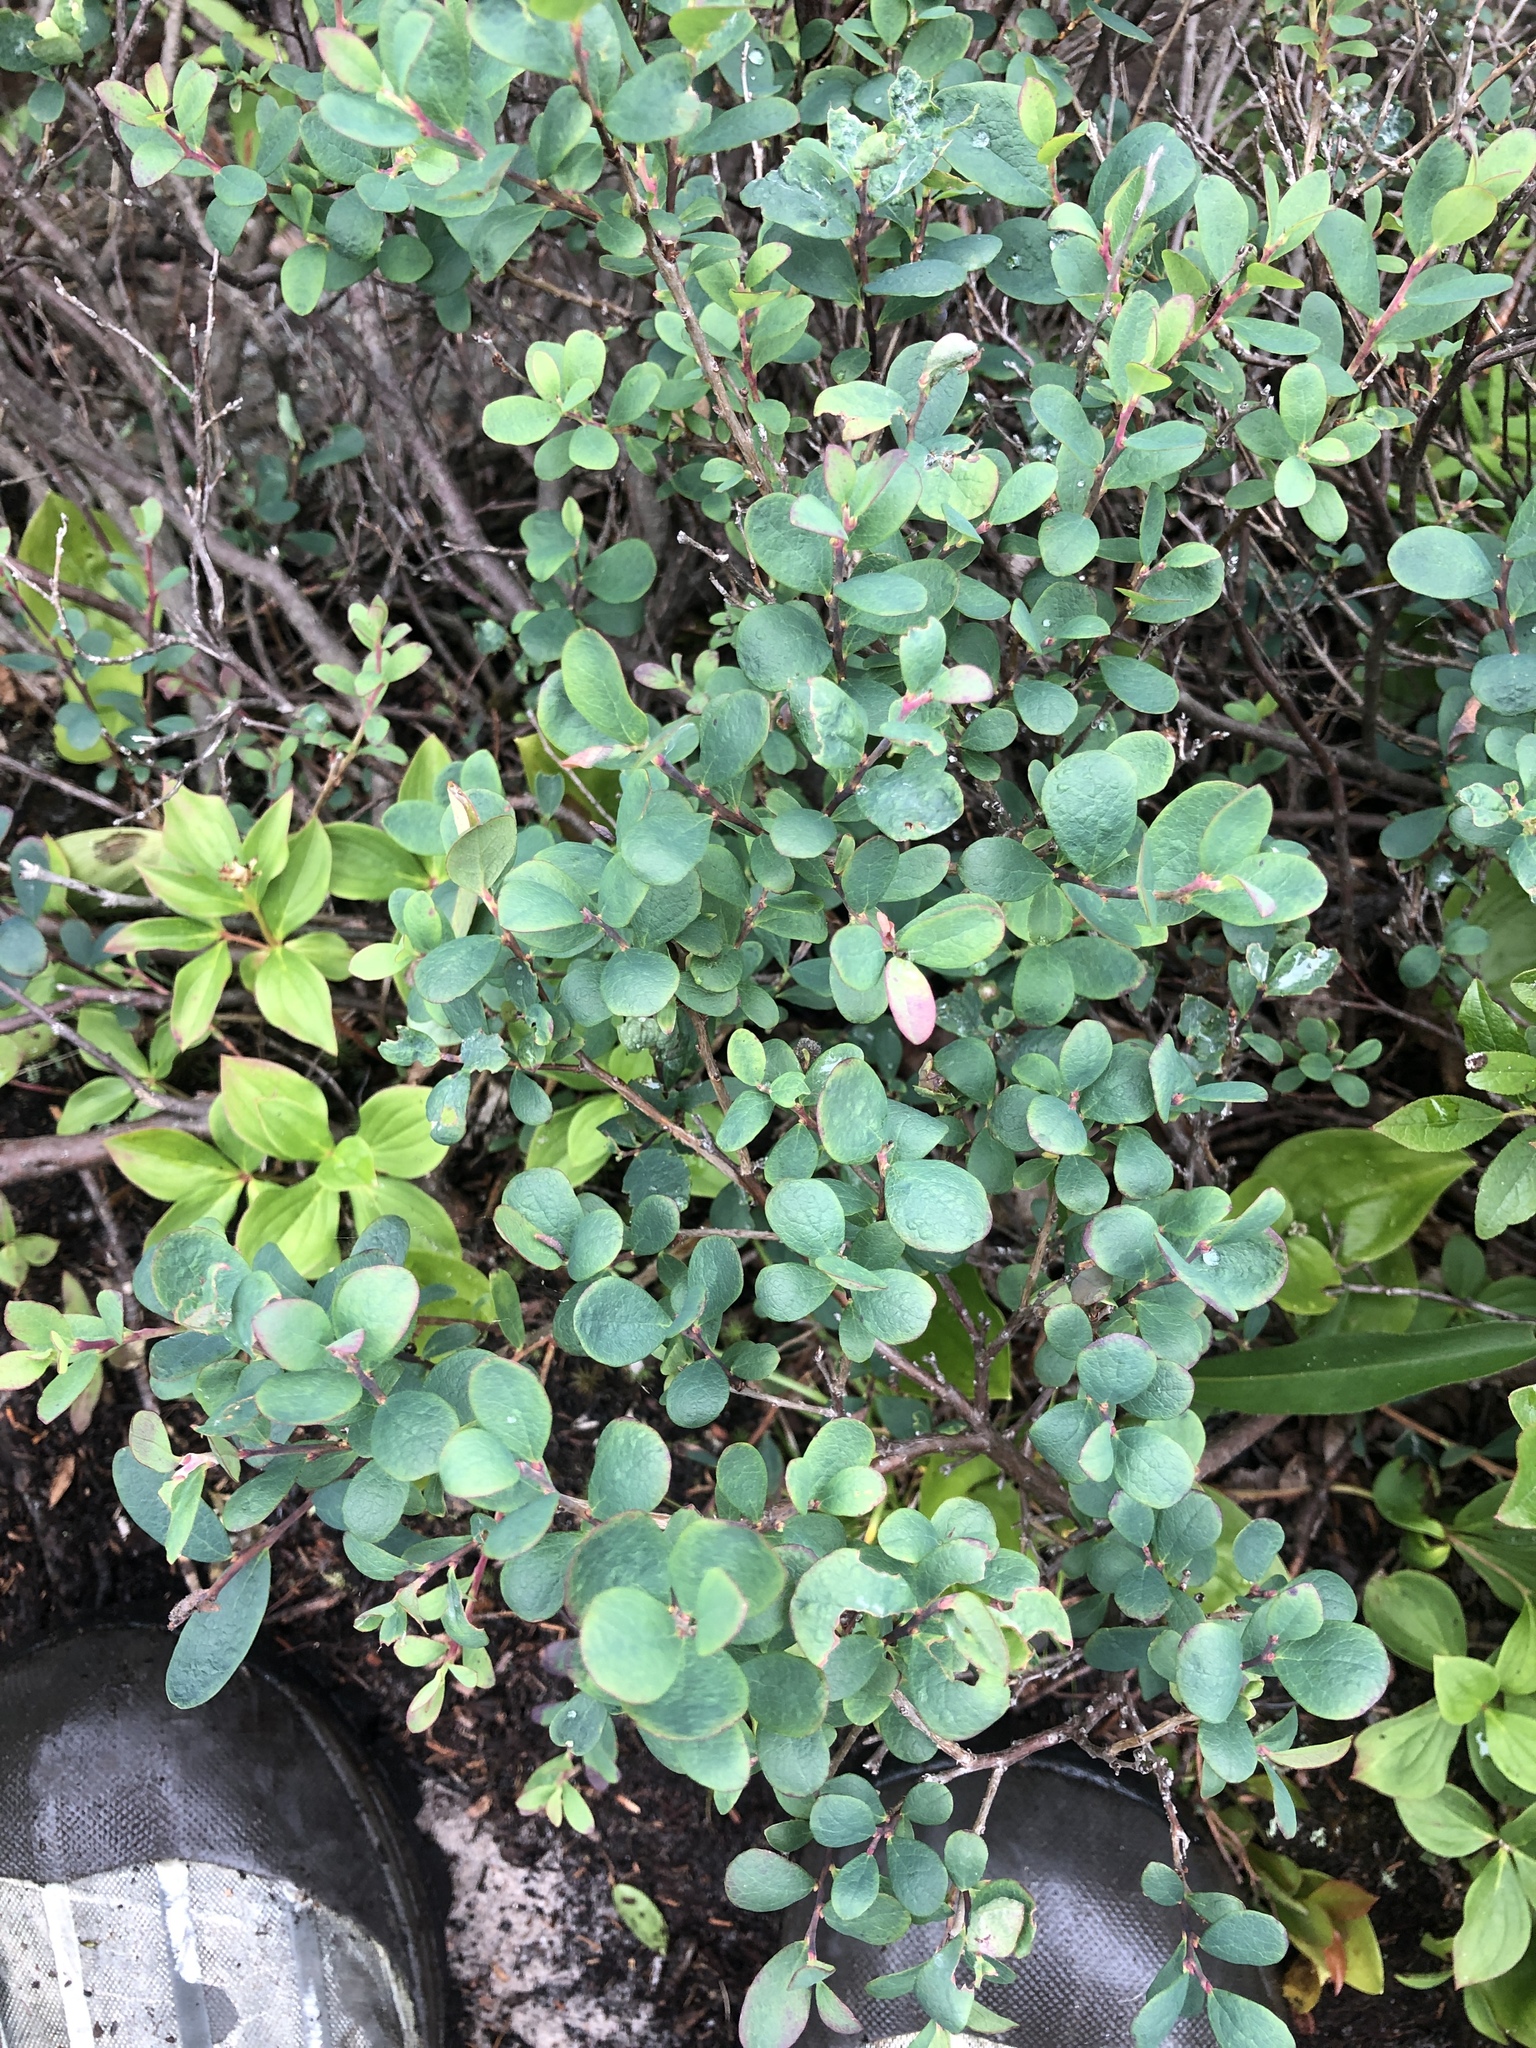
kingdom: Plantae
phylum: Tracheophyta
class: Magnoliopsida
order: Ericales
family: Ericaceae
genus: Vaccinium
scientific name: Vaccinium uliginosum
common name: Bog bilberry
